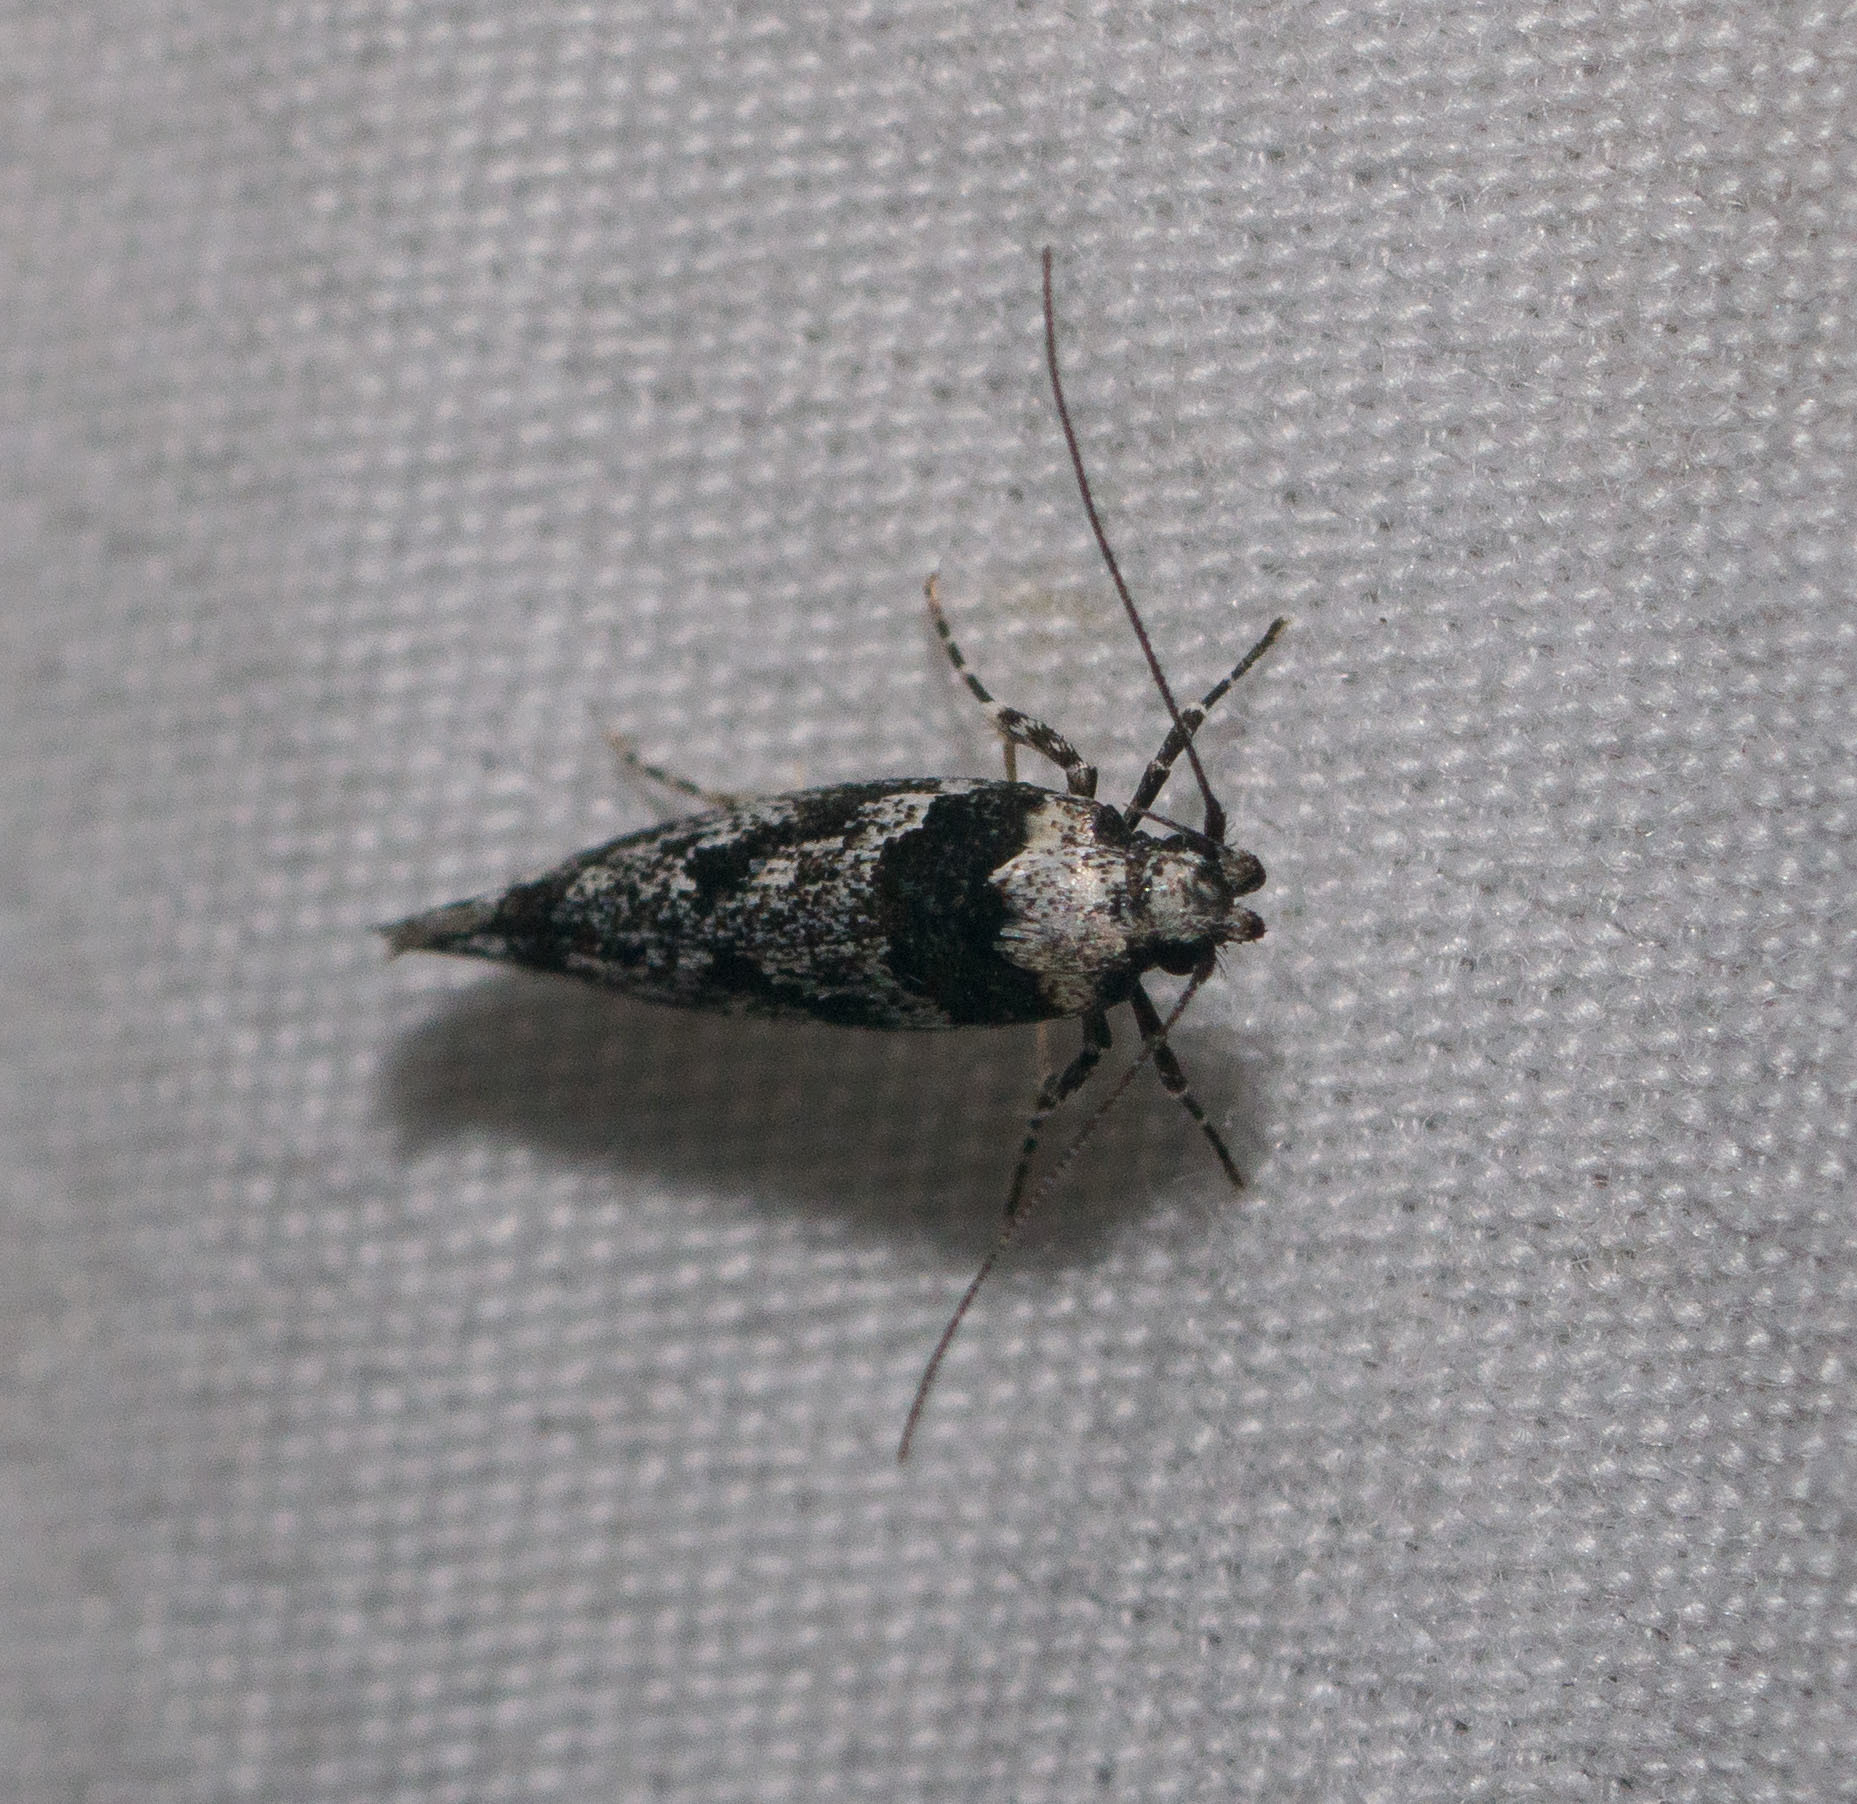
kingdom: Animalia
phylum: Arthropoda
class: Insecta
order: Lepidoptera
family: Cosmopterigidae
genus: Hyposmochoma
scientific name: Hyposmochoma empedota
